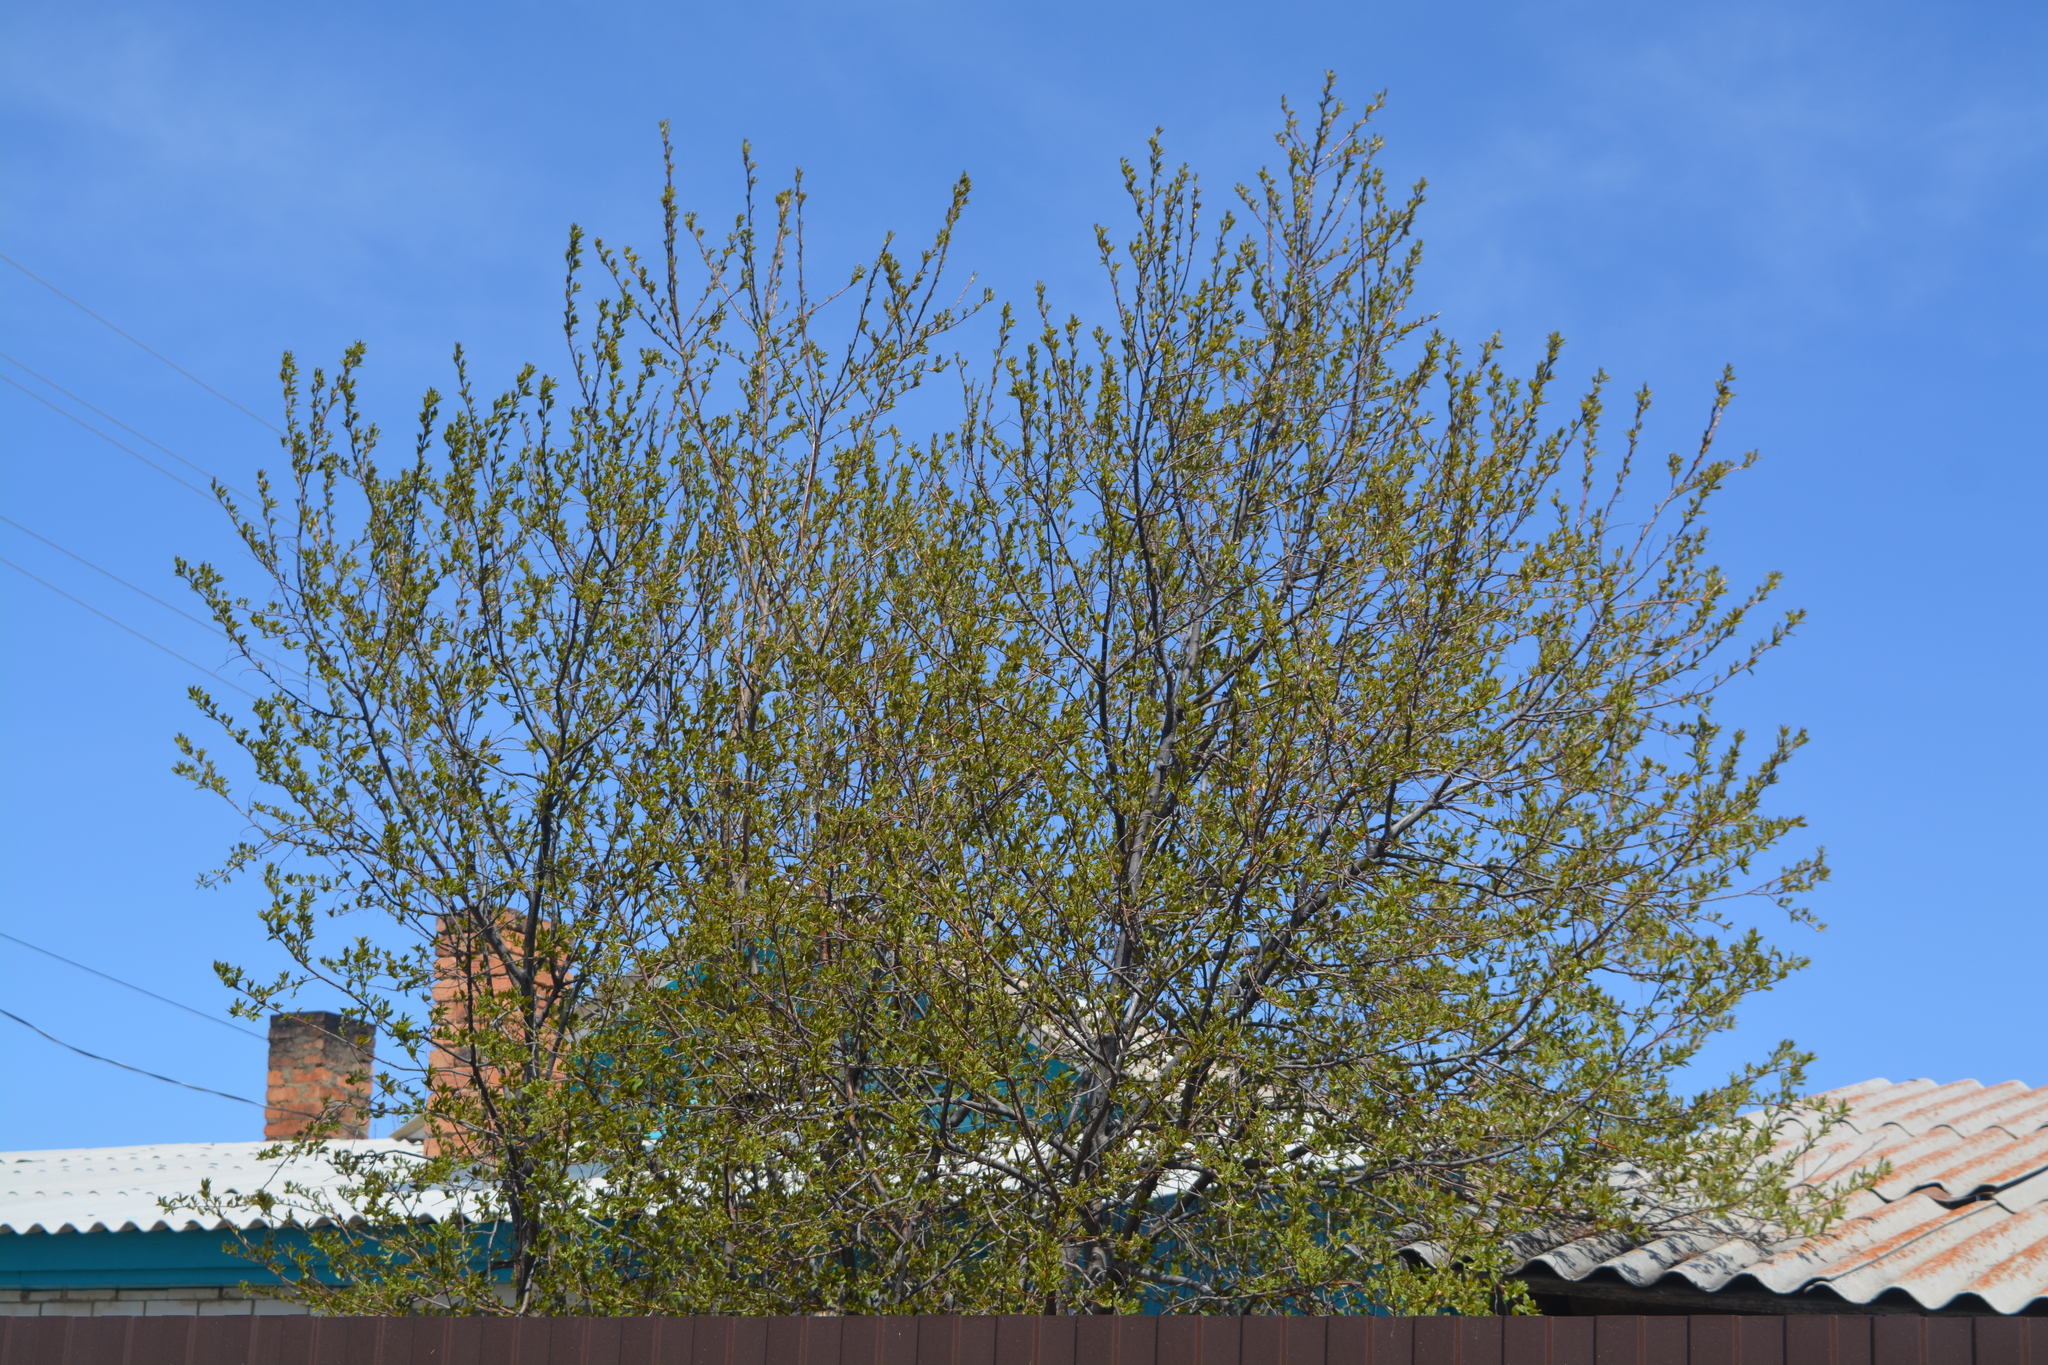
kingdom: Plantae
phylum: Tracheophyta
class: Magnoliopsida
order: Rosales
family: Rosaceae
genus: Prunus
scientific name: Prunus padus
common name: Bird cherry
